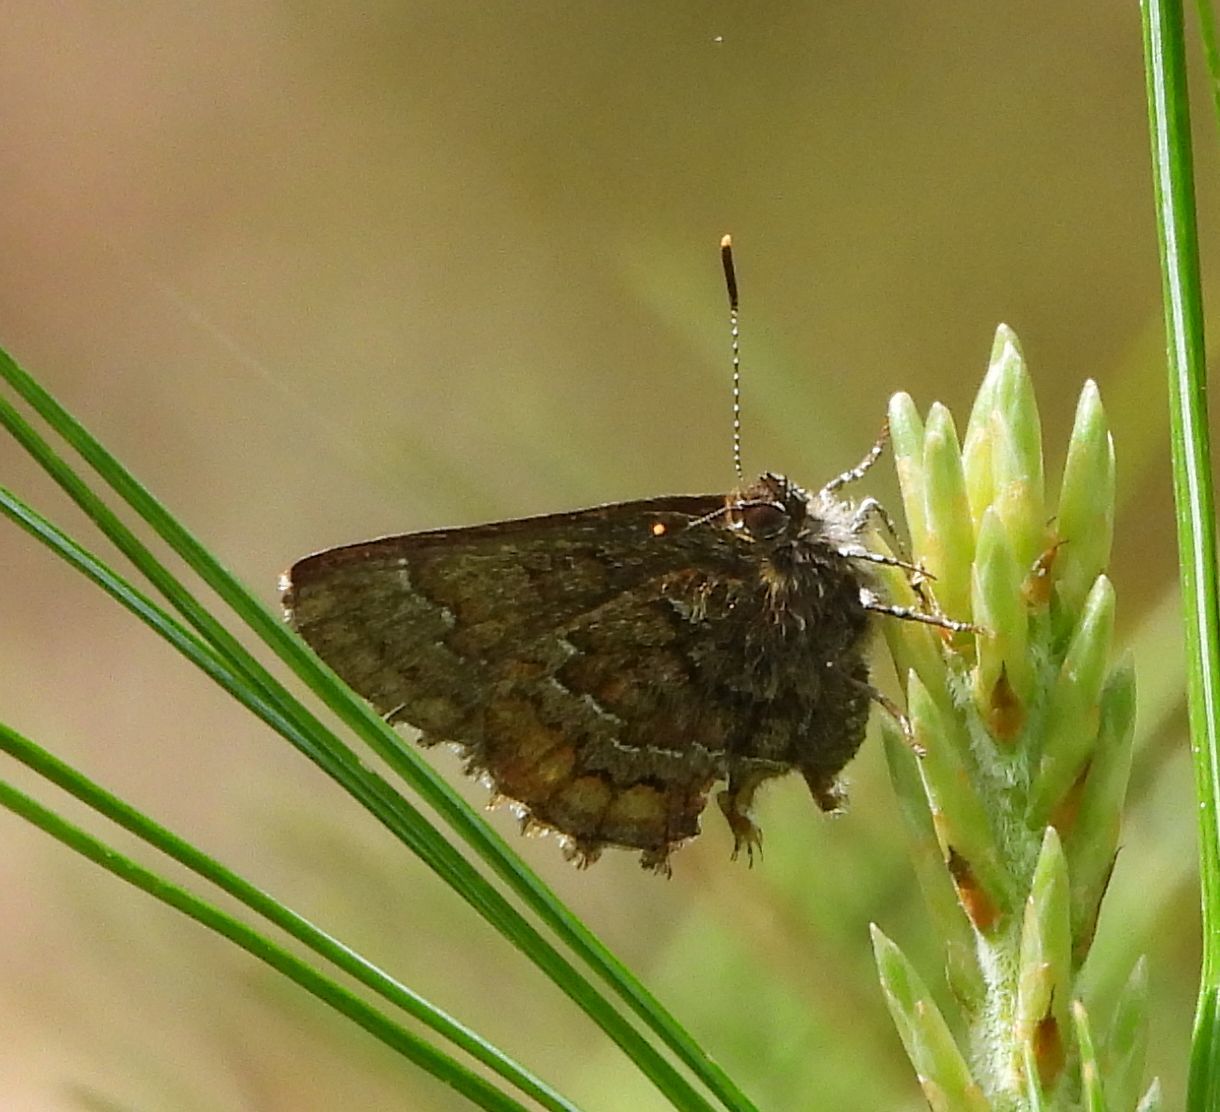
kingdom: Animalia
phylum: Arthropoda
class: Insecta
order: Lepidoptera
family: Lycaenidae
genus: Incisalia
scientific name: Incisalia niphon
